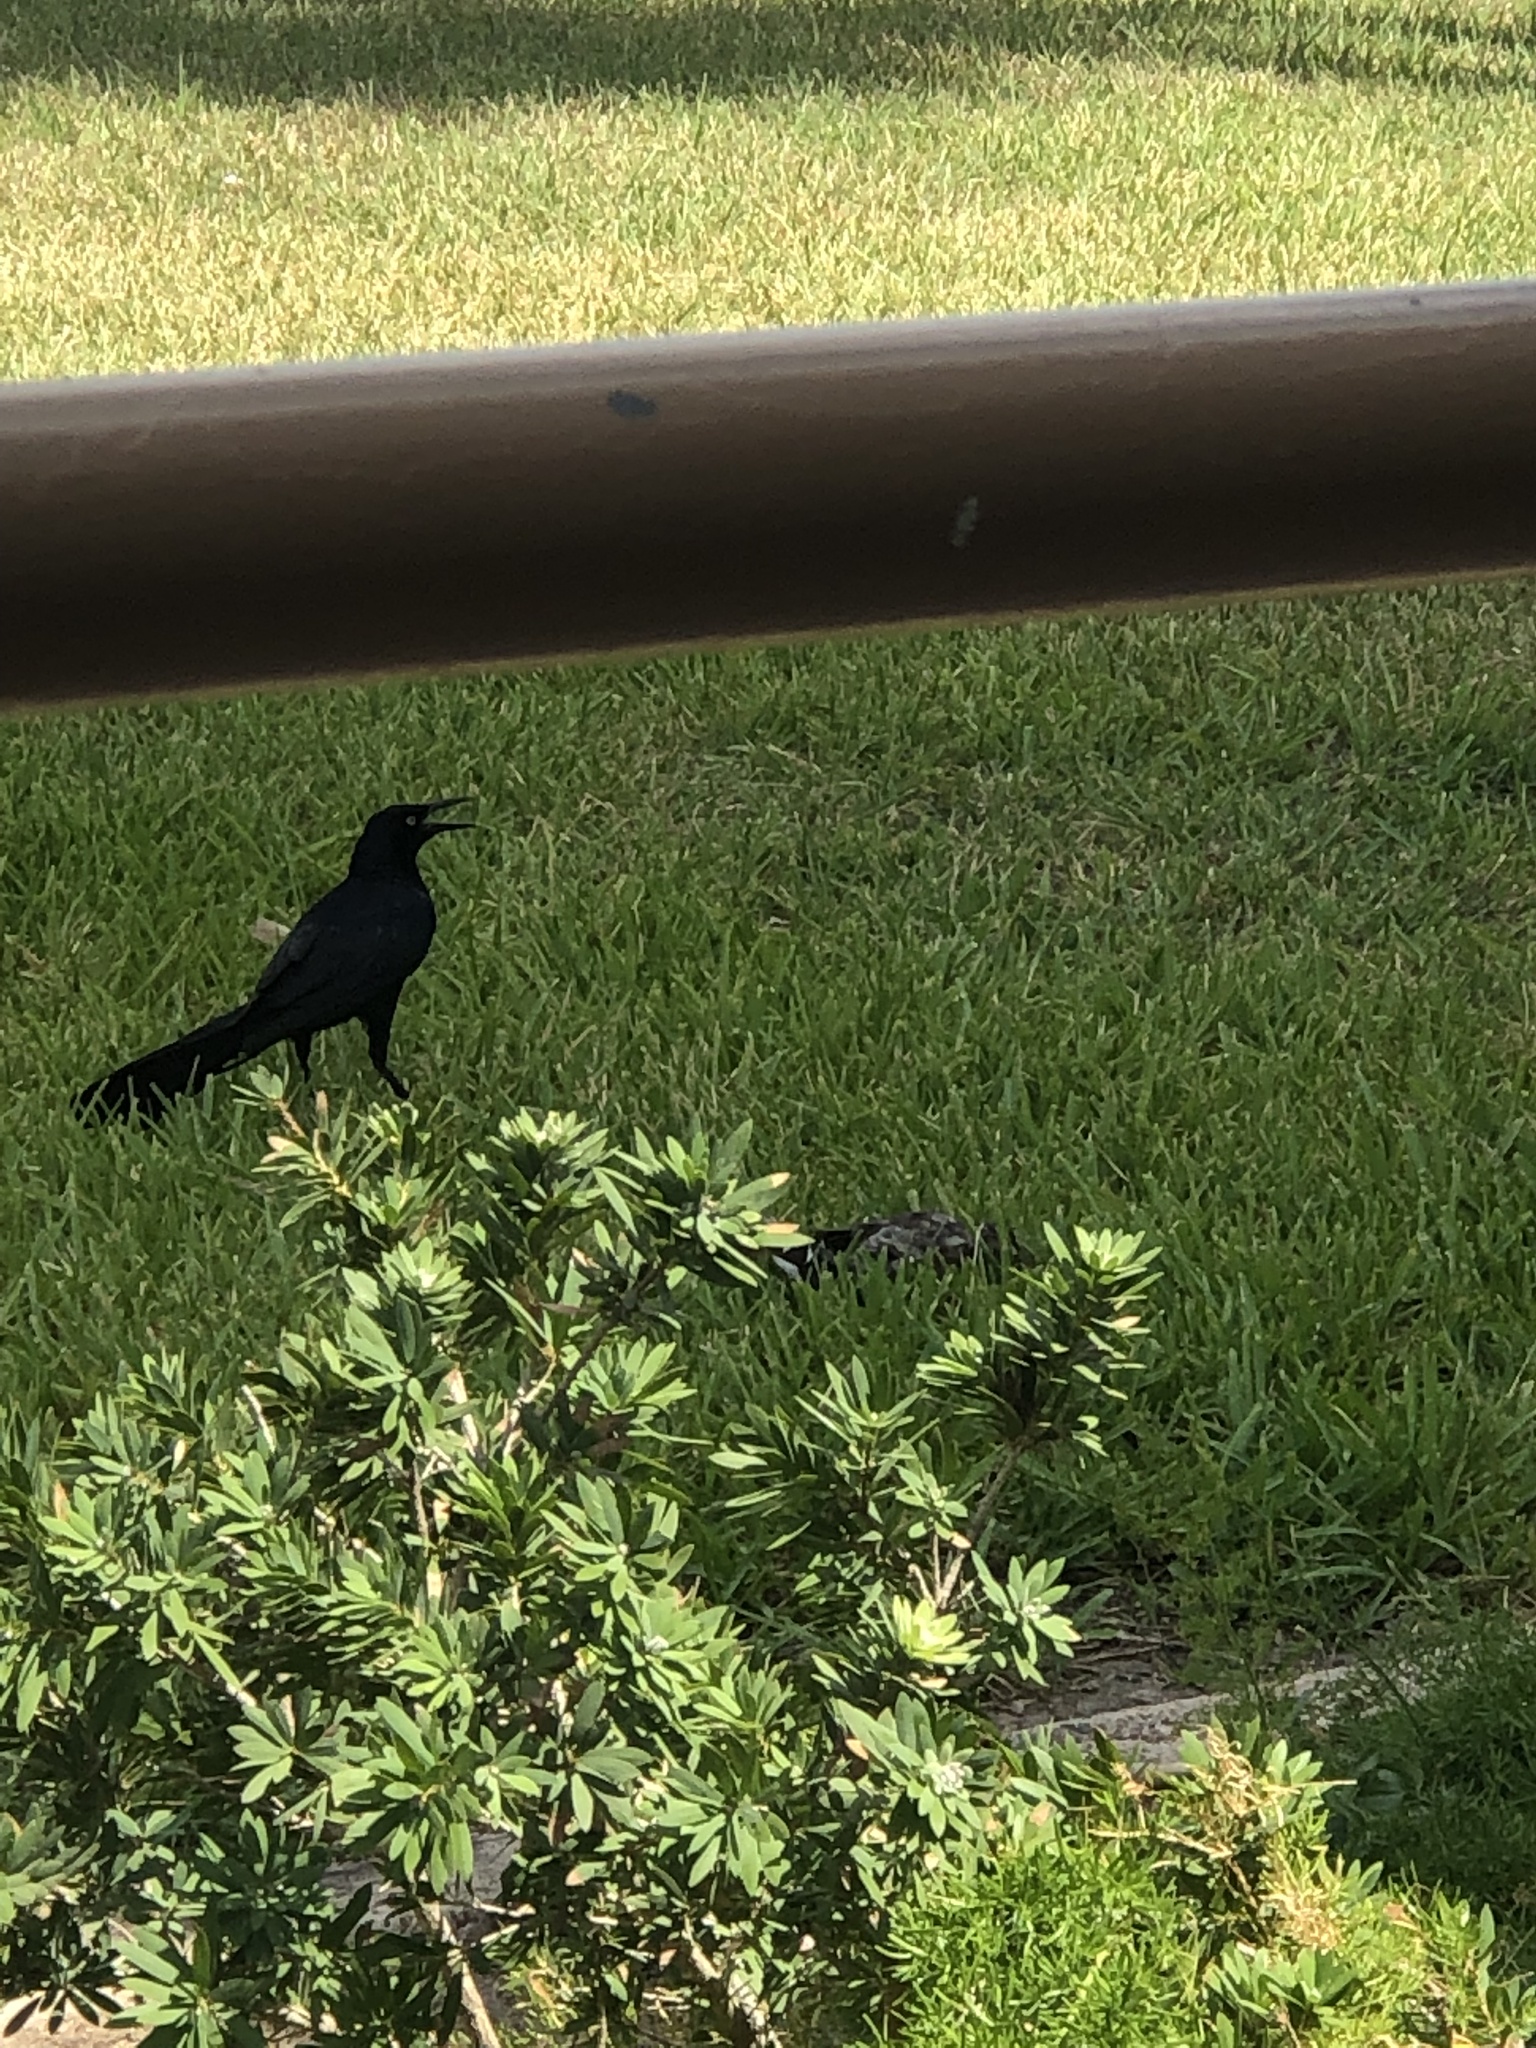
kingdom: Animalia
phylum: Chordata
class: Aves
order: Passeriformes
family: Icteridae
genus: Quiscalus
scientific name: Quiscalus mexicanus
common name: Great-tailed grackle
